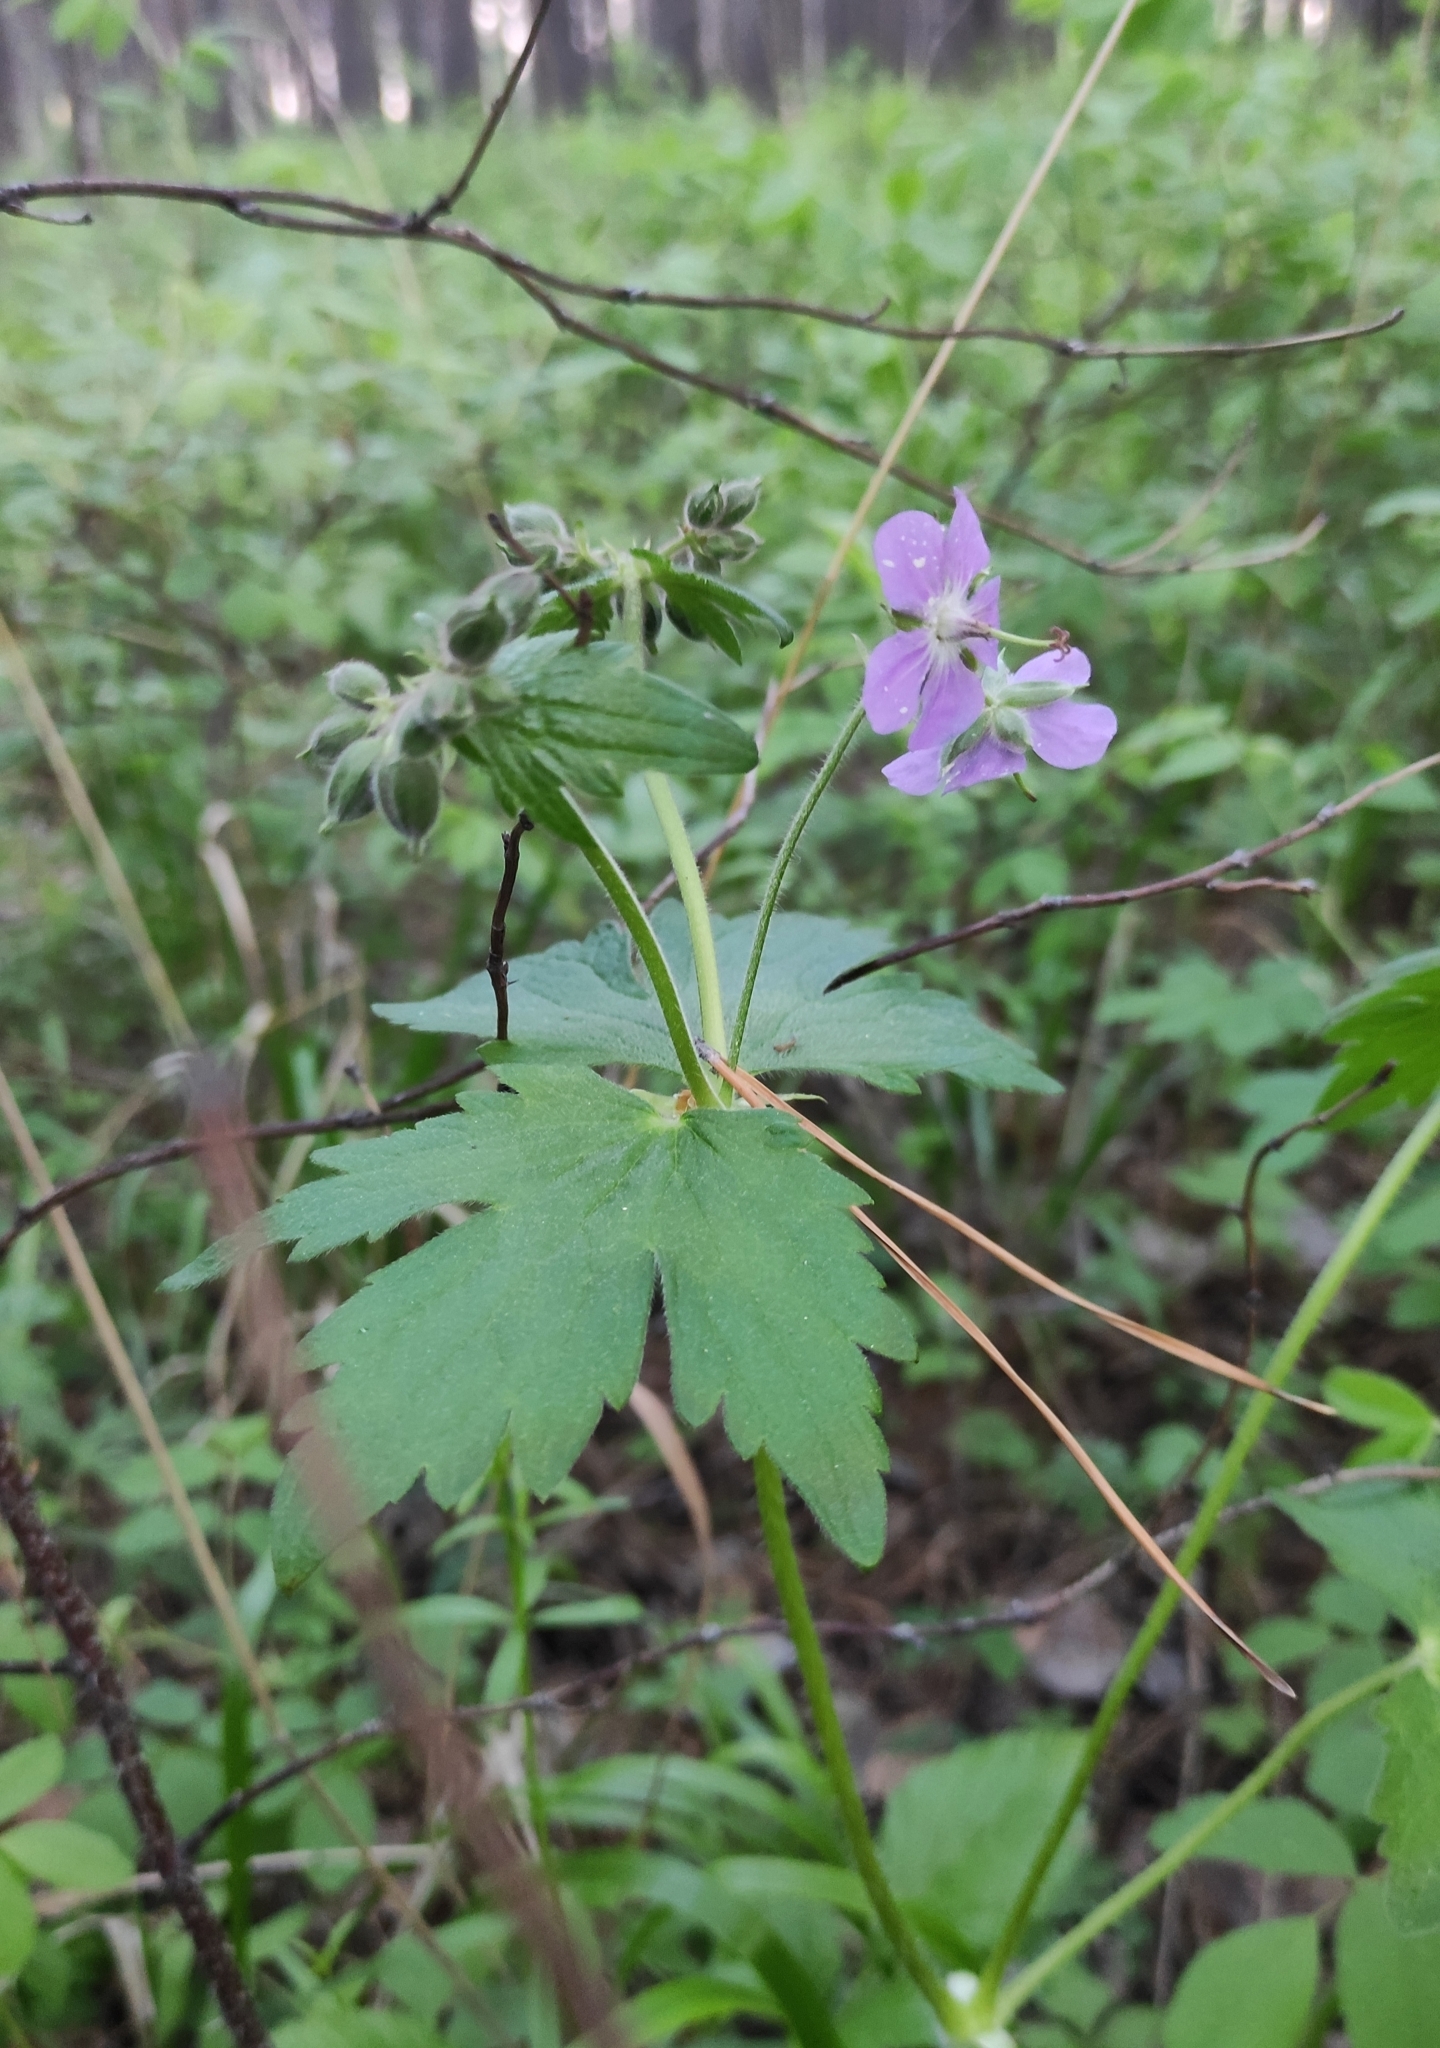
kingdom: Plantae
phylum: Tracheophyta
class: Magnoliopsida
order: Geraniales
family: Geraniaceae
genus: Geranium
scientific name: Geranium platyanthum
